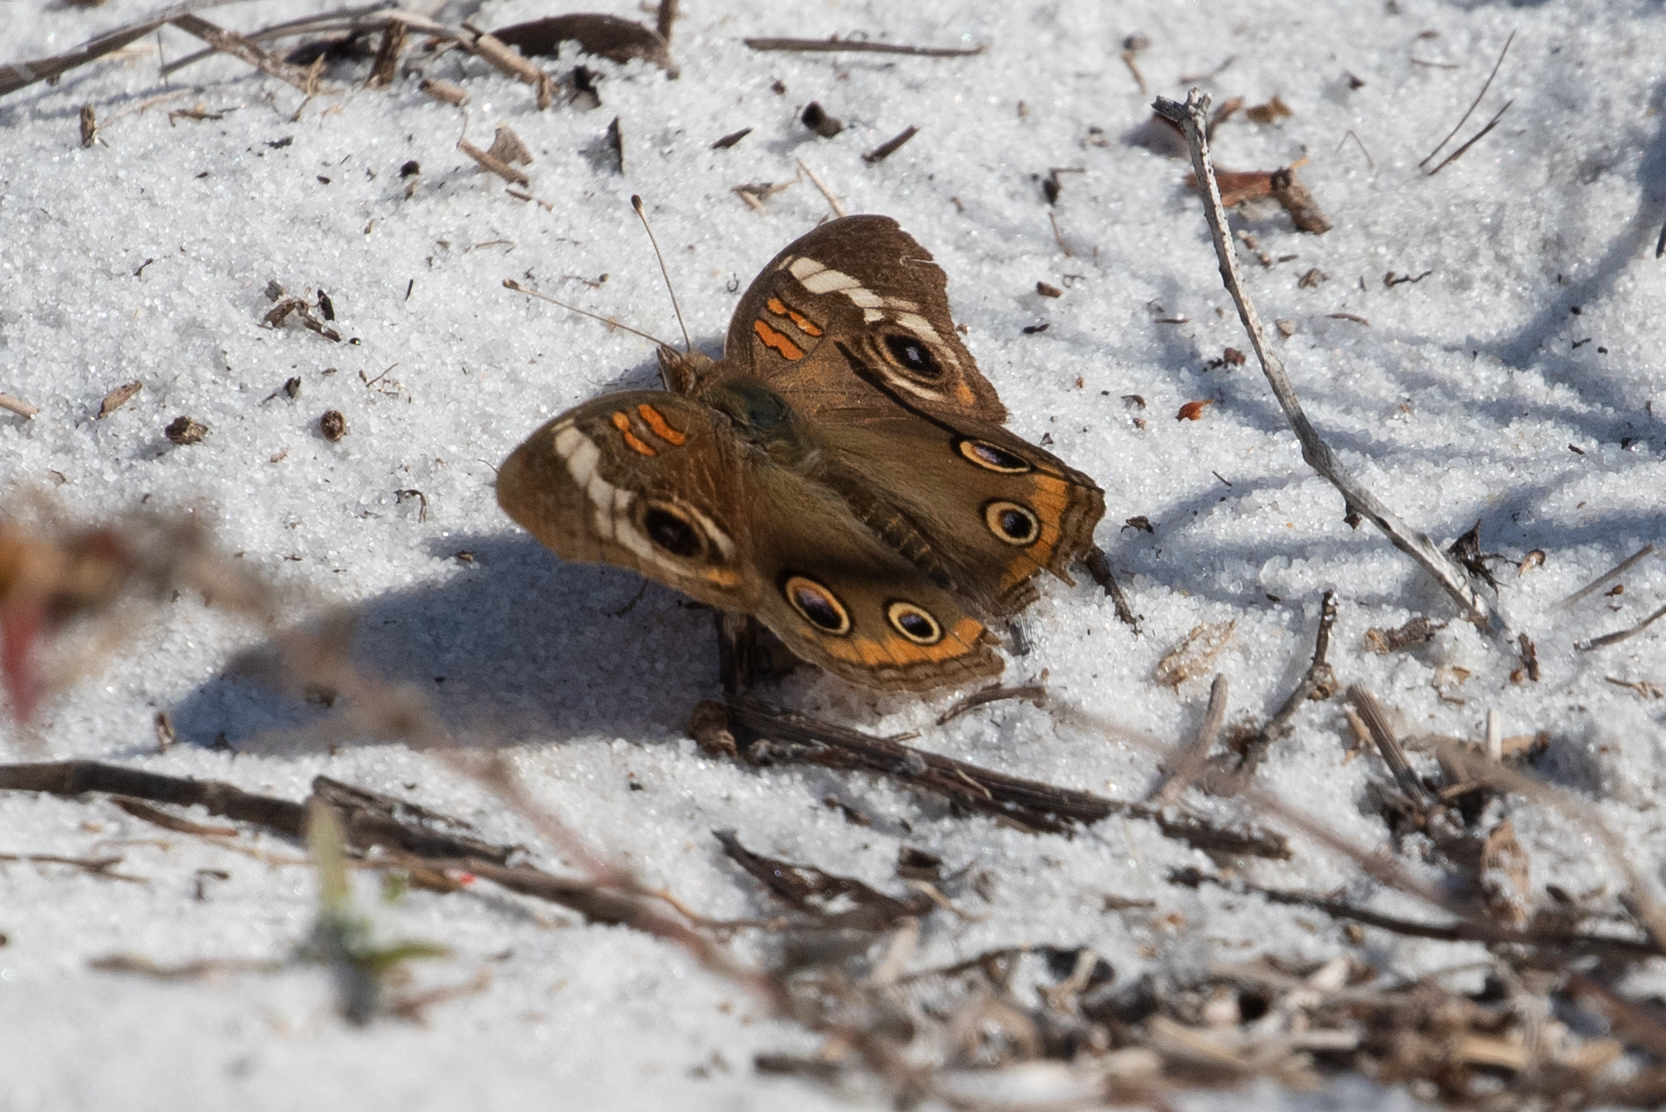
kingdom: Animalia
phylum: Arthropoda
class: Insecta
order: Lepidoptera
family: Nymphalidae
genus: Junonia
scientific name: Junonia coenia
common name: Common buckeye
